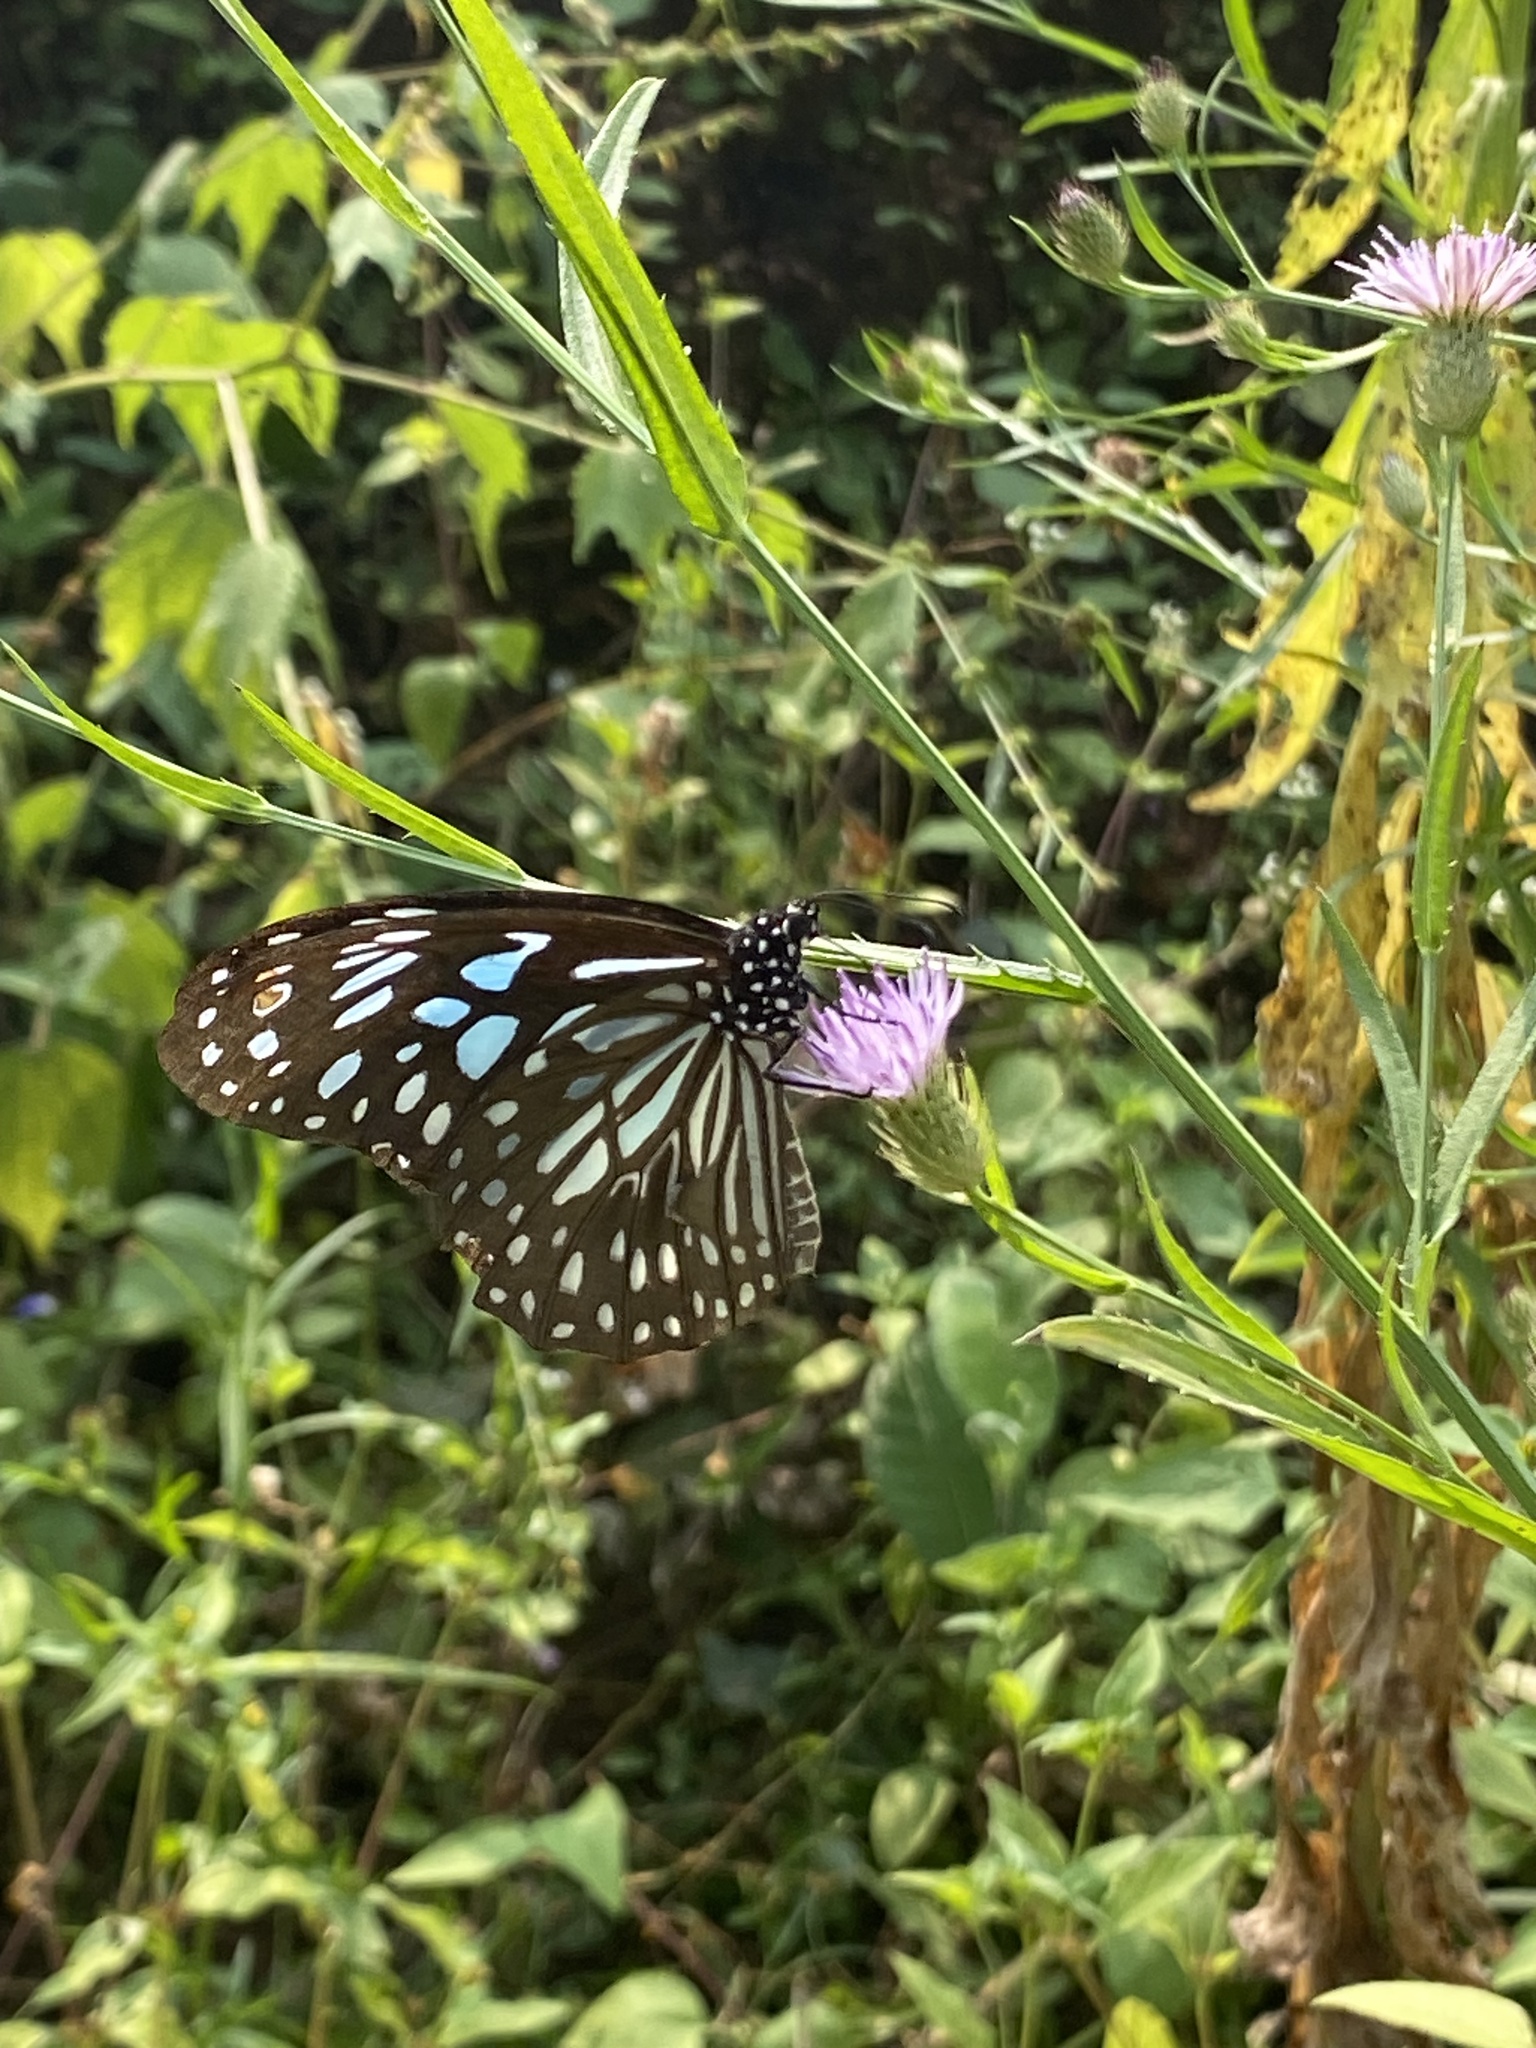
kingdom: Animalia
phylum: Arthropoda
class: Insecta
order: Lepidoptera
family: Nymphalidae
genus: Tirumala
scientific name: Tirumala septentrionis
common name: Dark blue tiger butterfly
